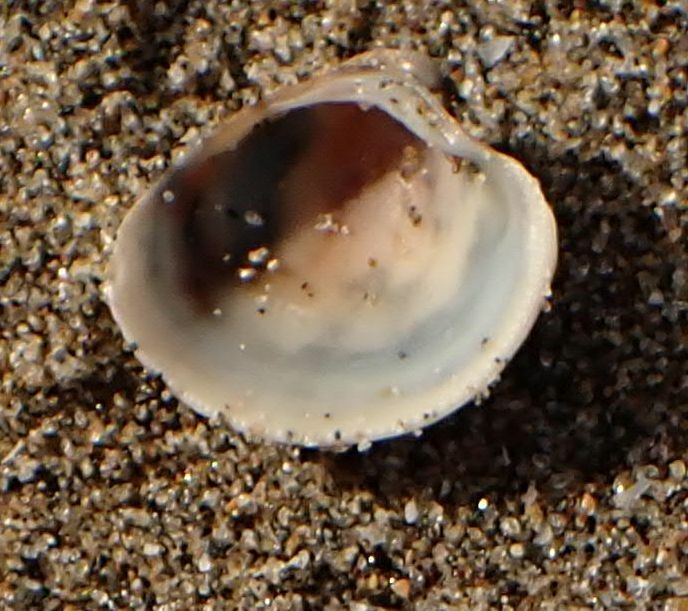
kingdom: Animalia
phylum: Mollusca
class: Bivalvia
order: Venerida
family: Veneridae
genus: Chamelea
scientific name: Chamelea gallina
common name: Chicken venus
